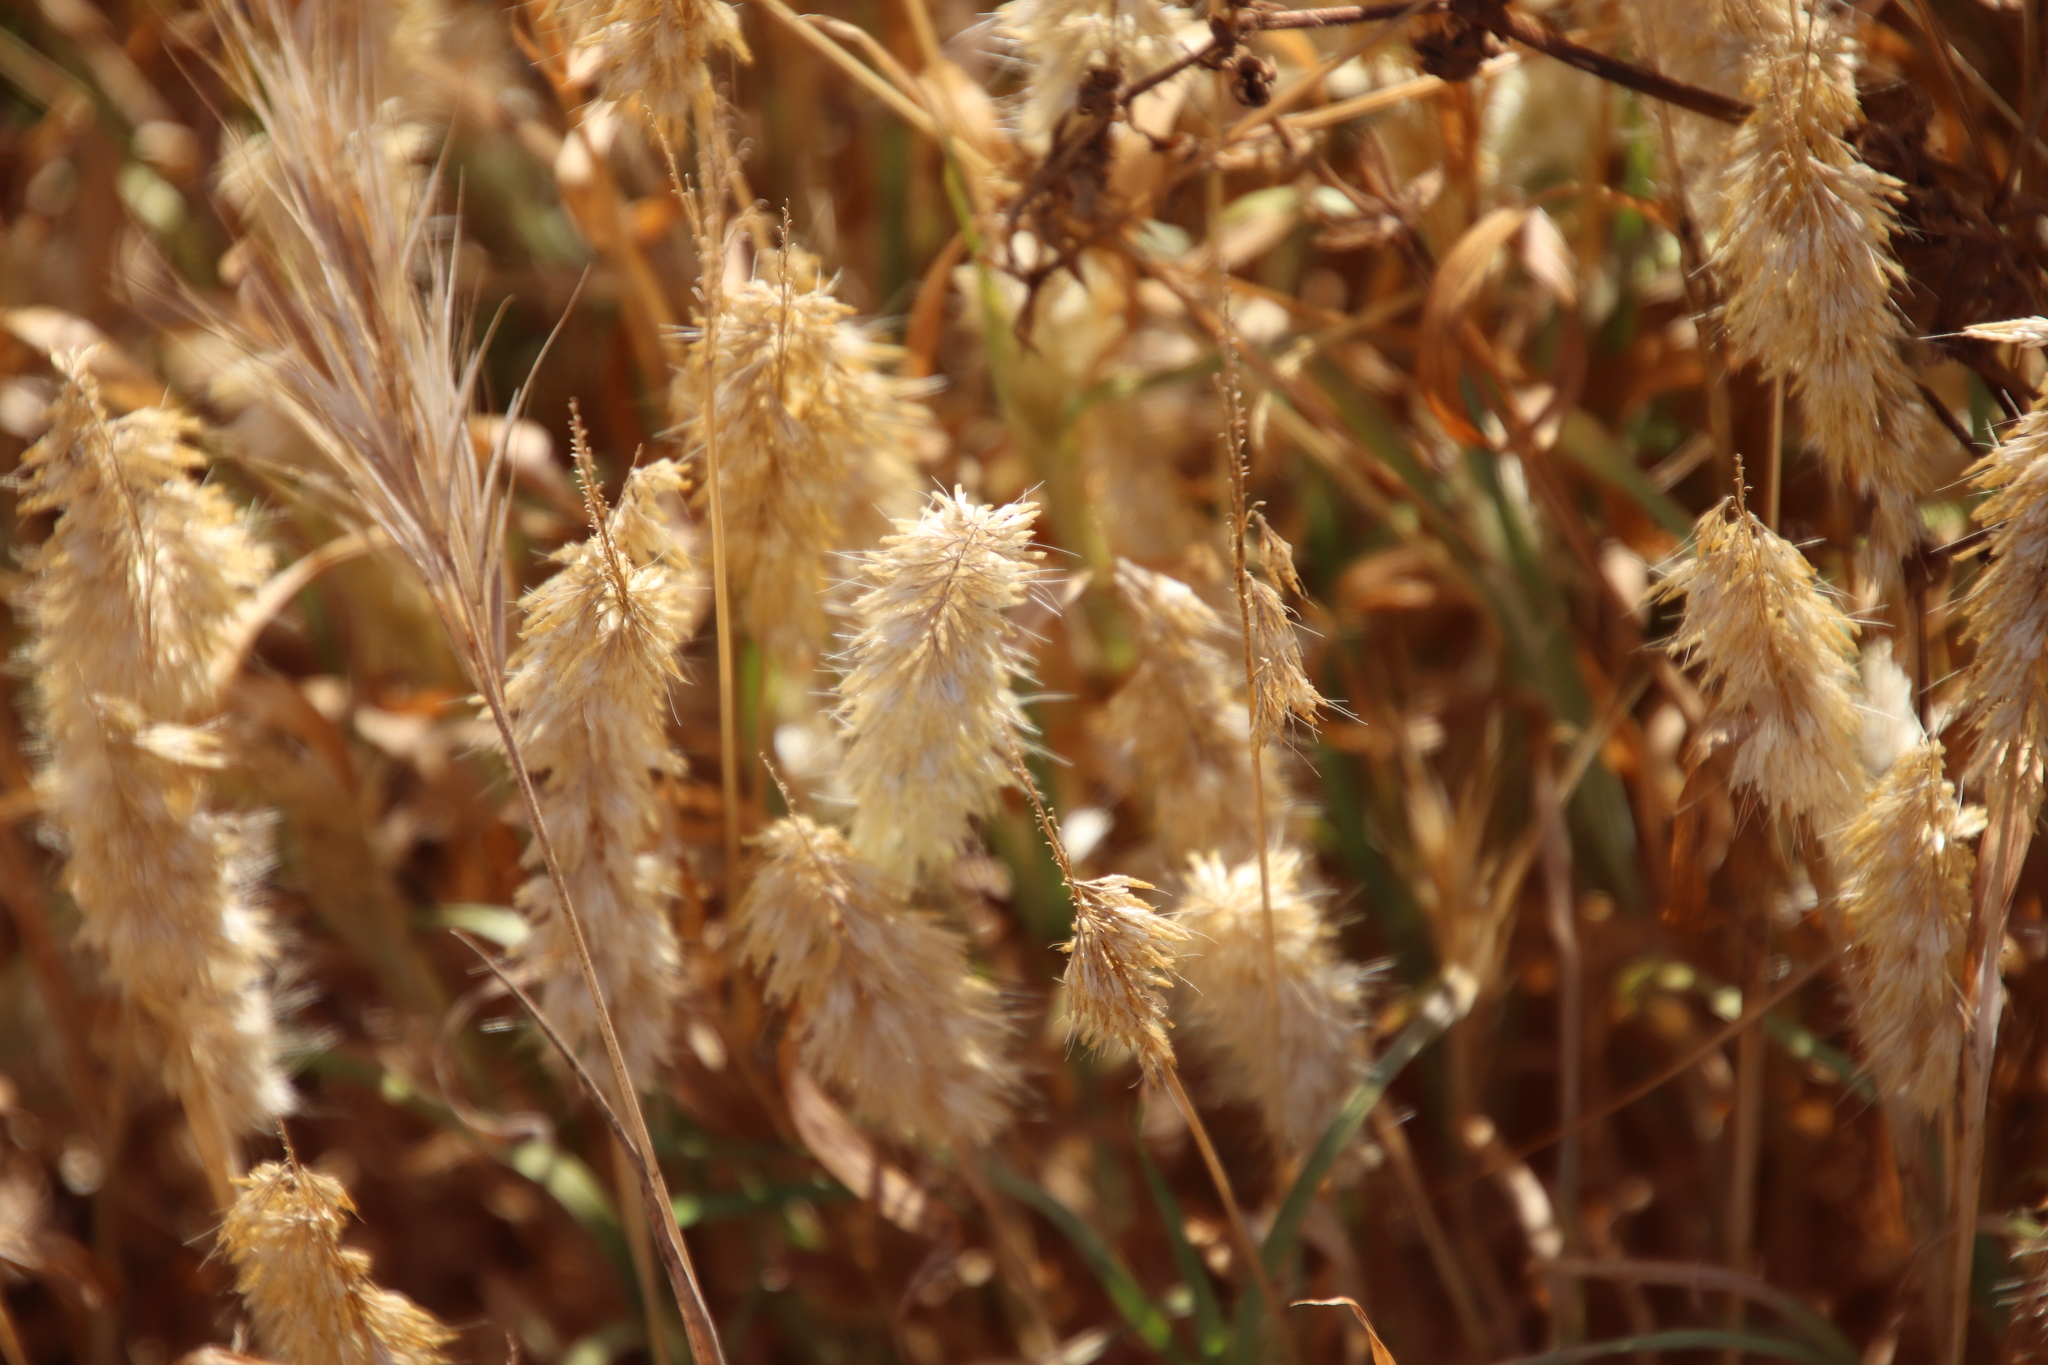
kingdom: Plantae
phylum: Tracheophyta
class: Liliopsida
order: Poales
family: Poaceae
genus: Lamarckia
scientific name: Lamarckia aurea
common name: Golden dog's-tail
